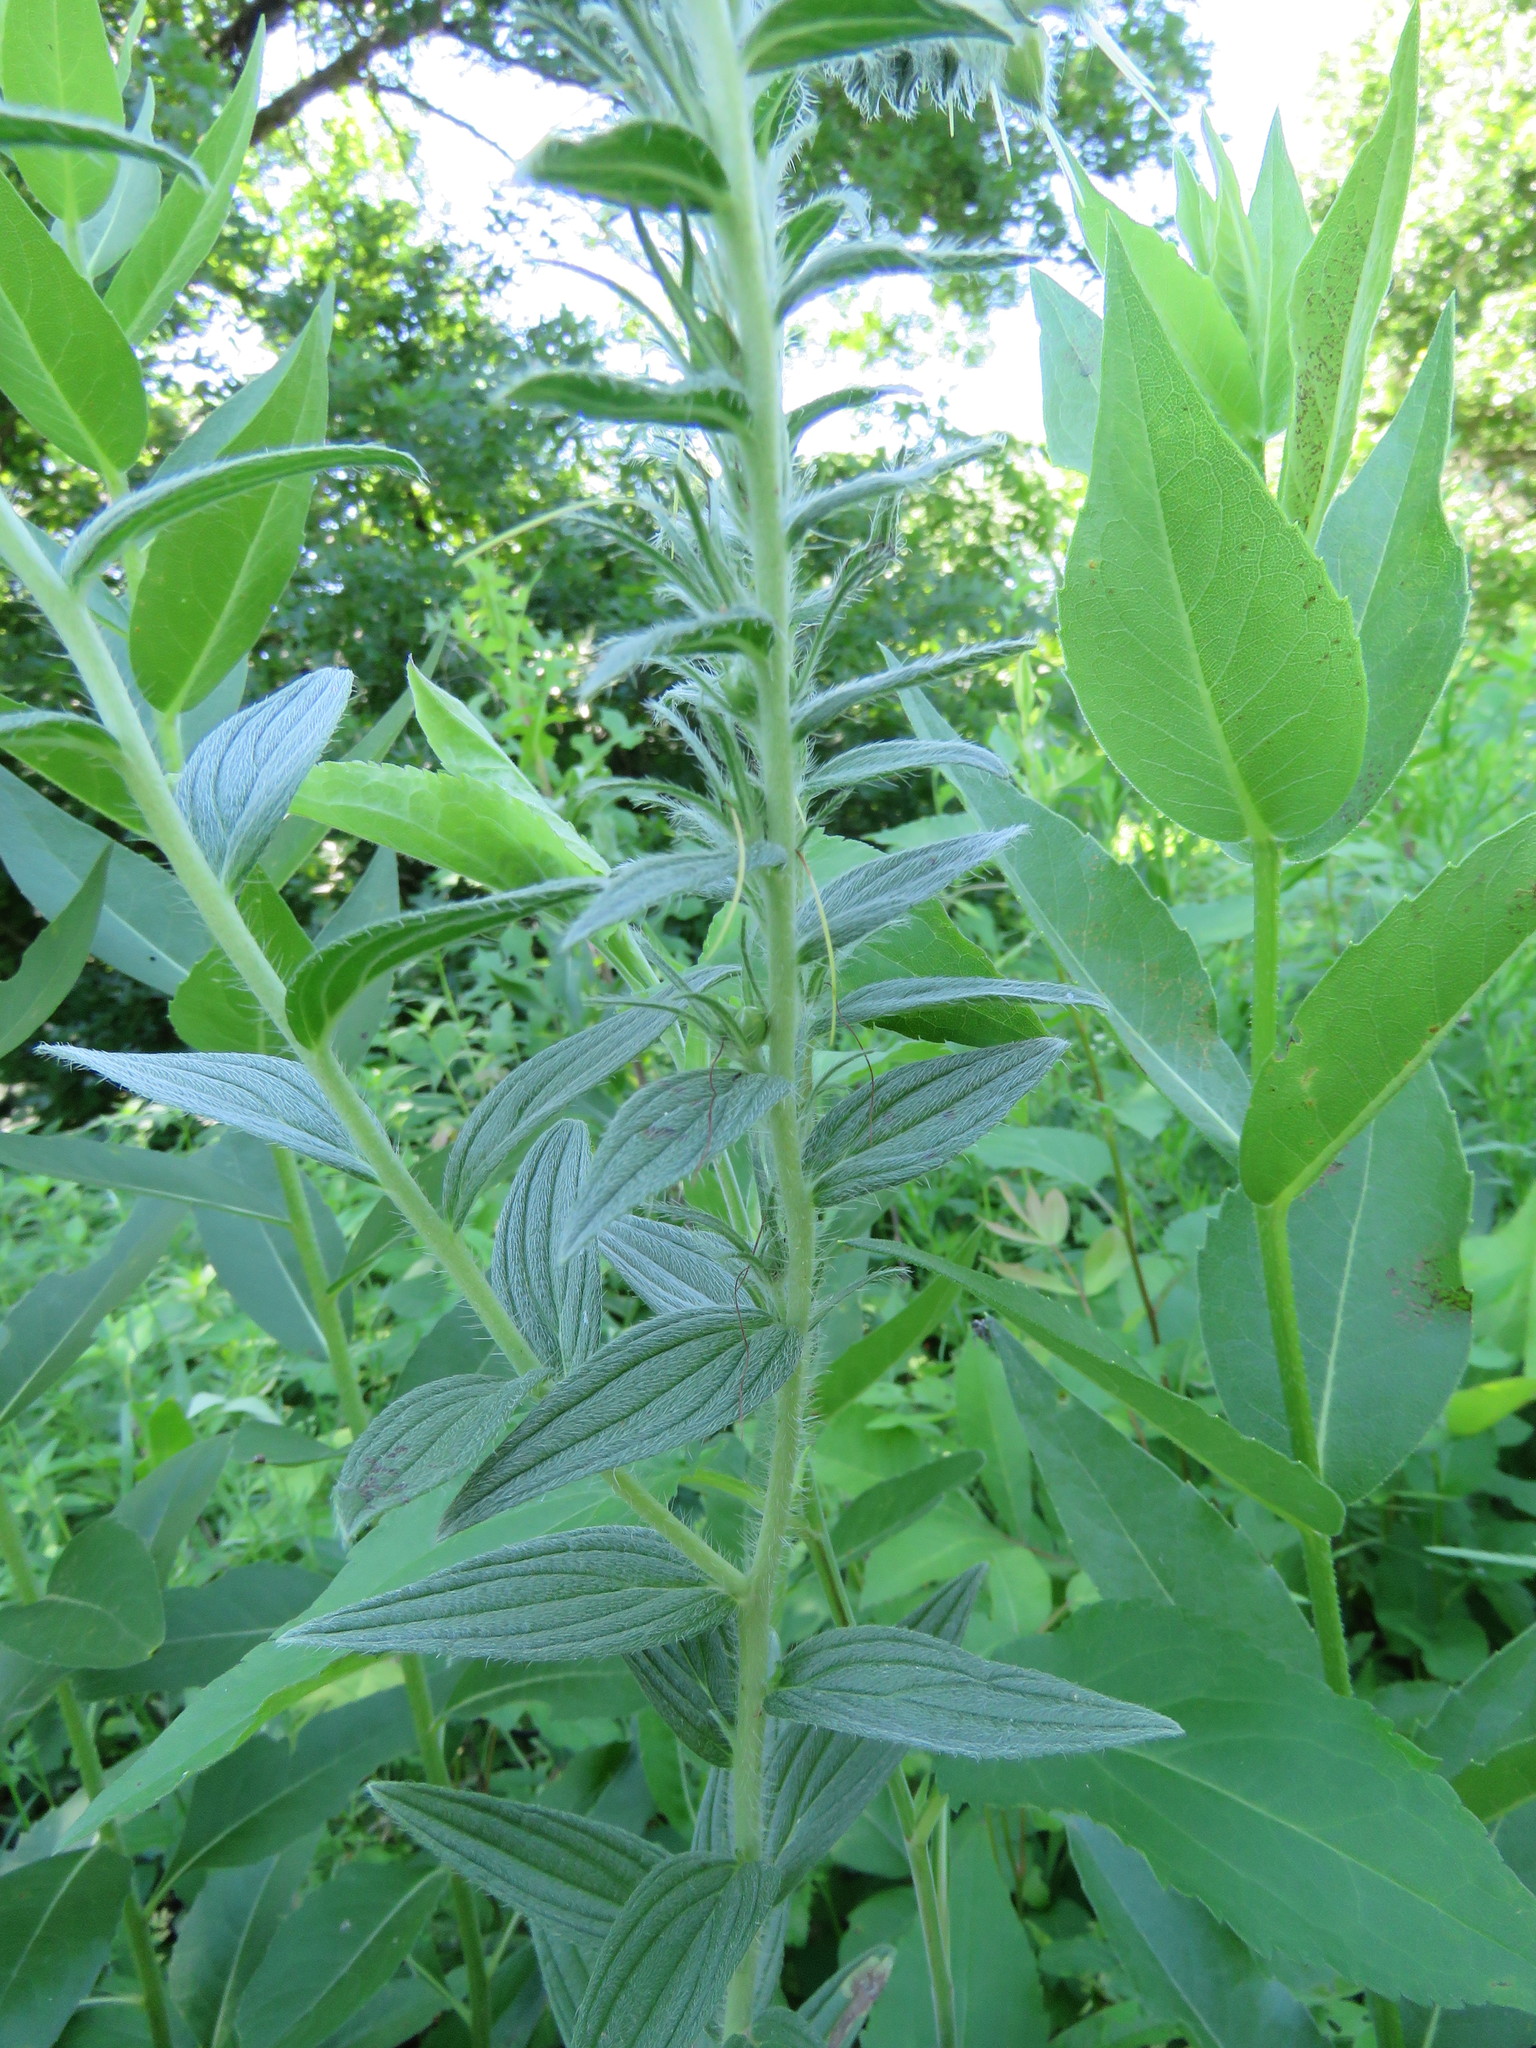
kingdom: Plantae
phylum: Tracheophyta
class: Magnoliopsida
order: Boraginales
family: Boraginaceae
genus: Lithospermum
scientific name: Lithospermum caroliniense
